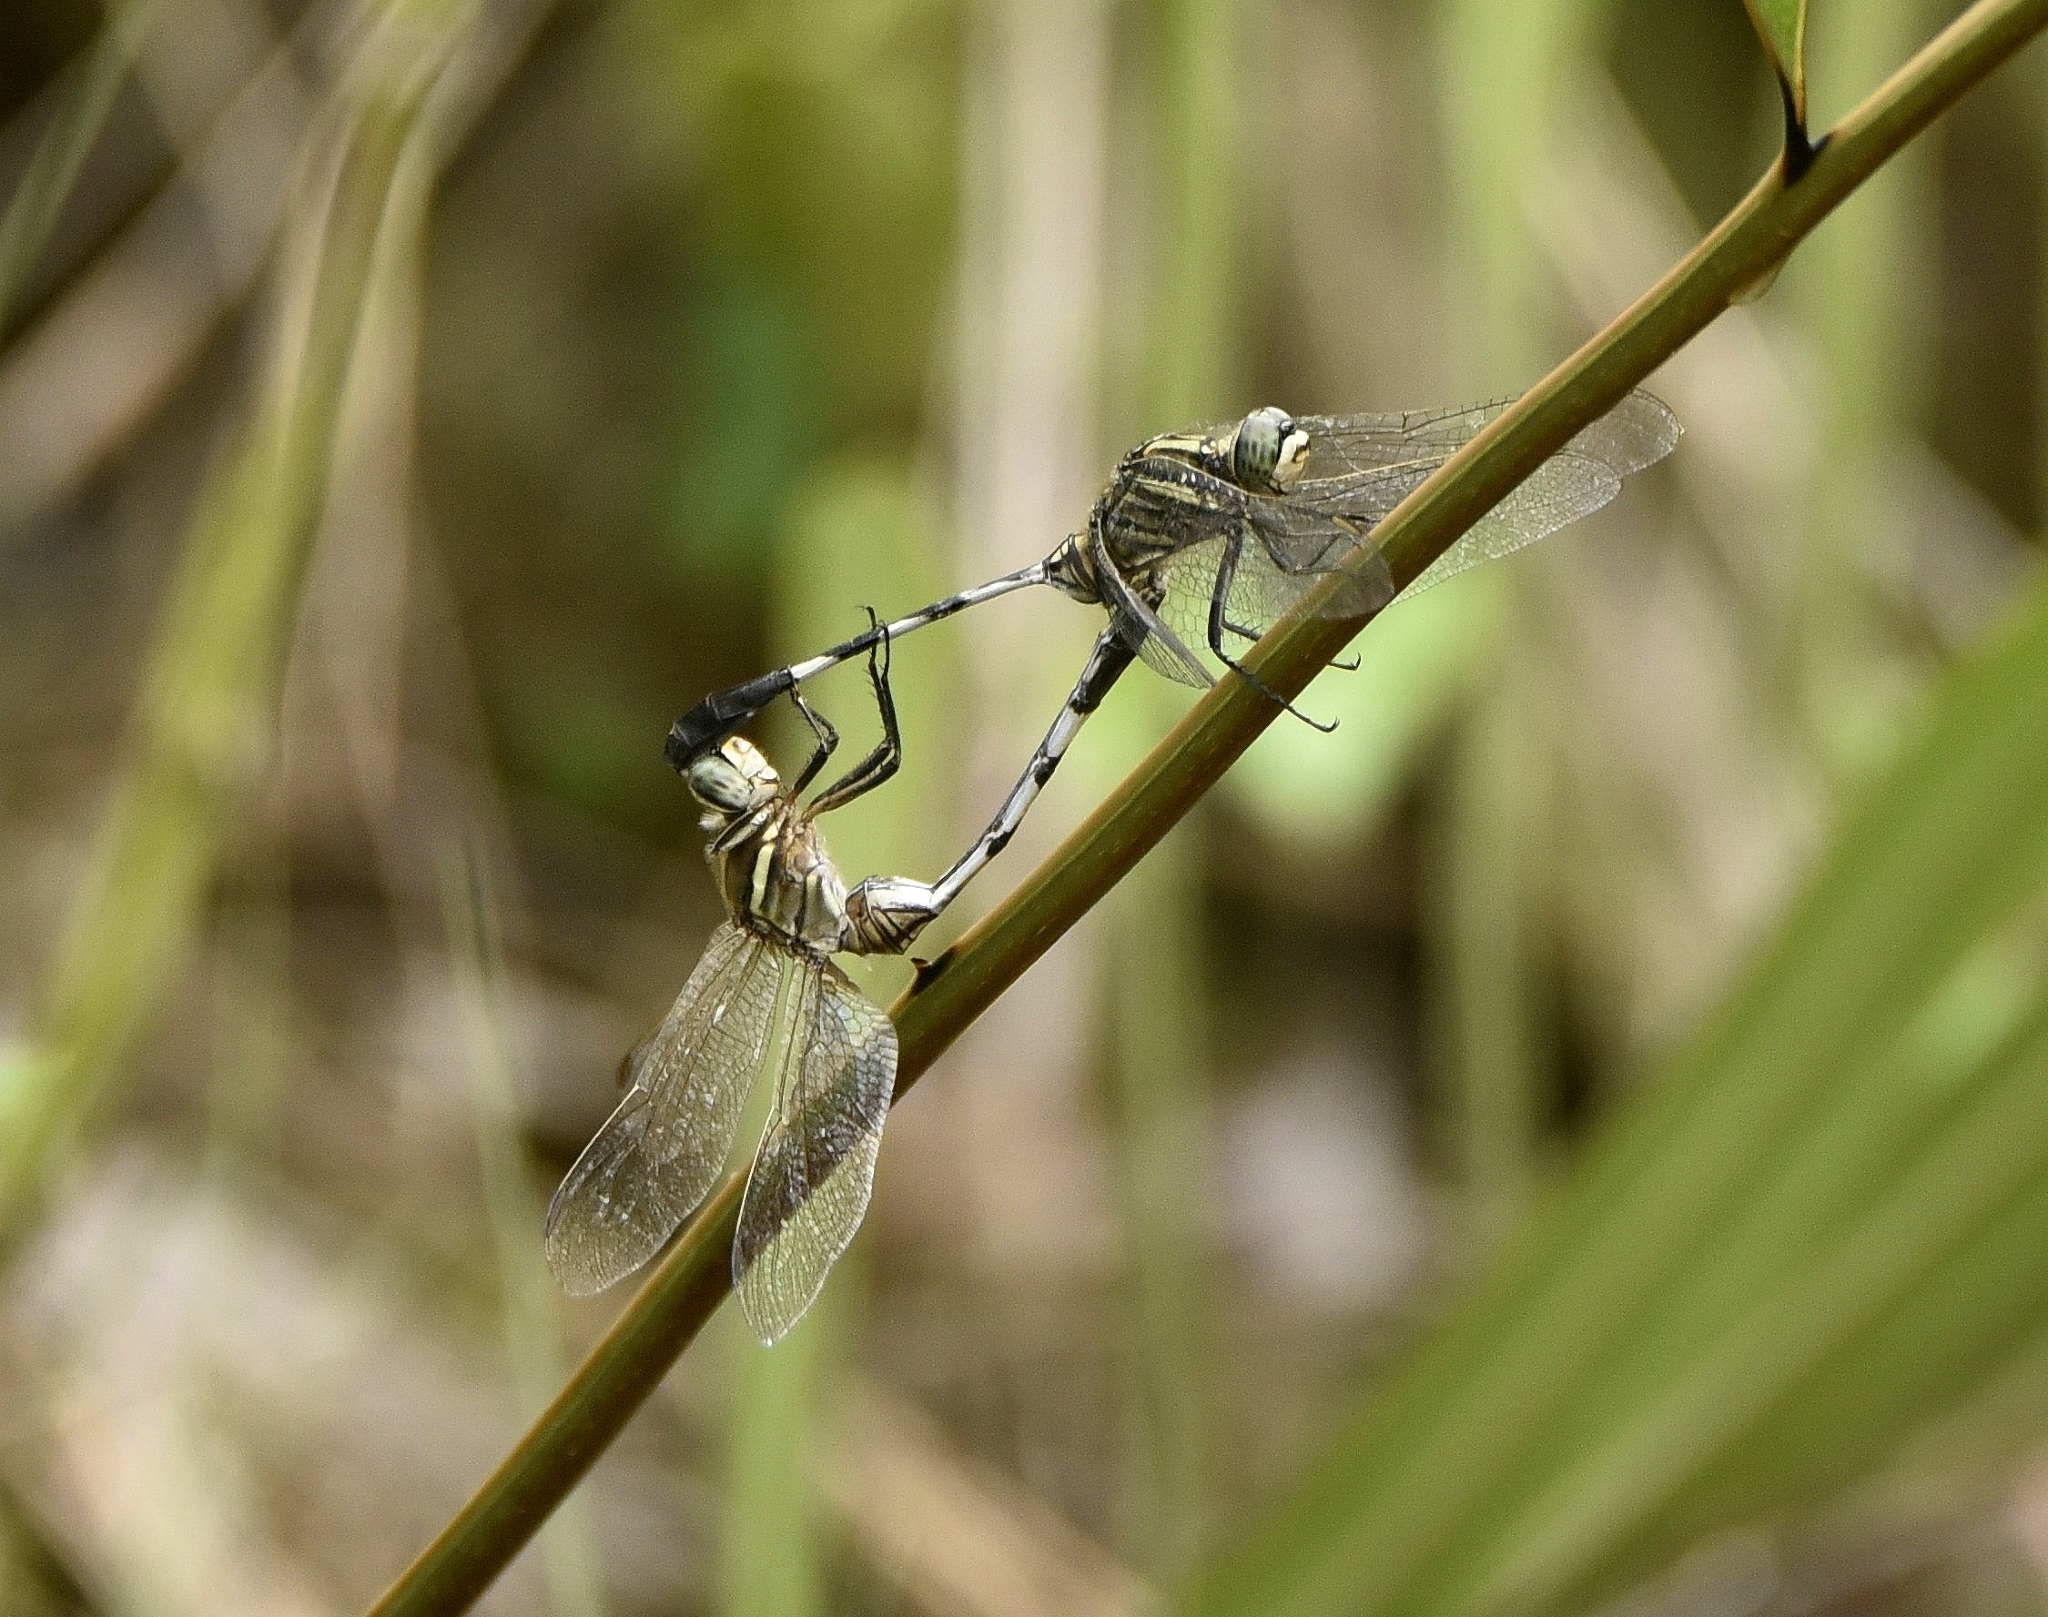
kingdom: Animalia
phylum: Arthropoda
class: Insecta
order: Odonata
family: Libellulidae
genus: Orthetrum
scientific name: Orthetrum sabina
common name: Slender skimmer
